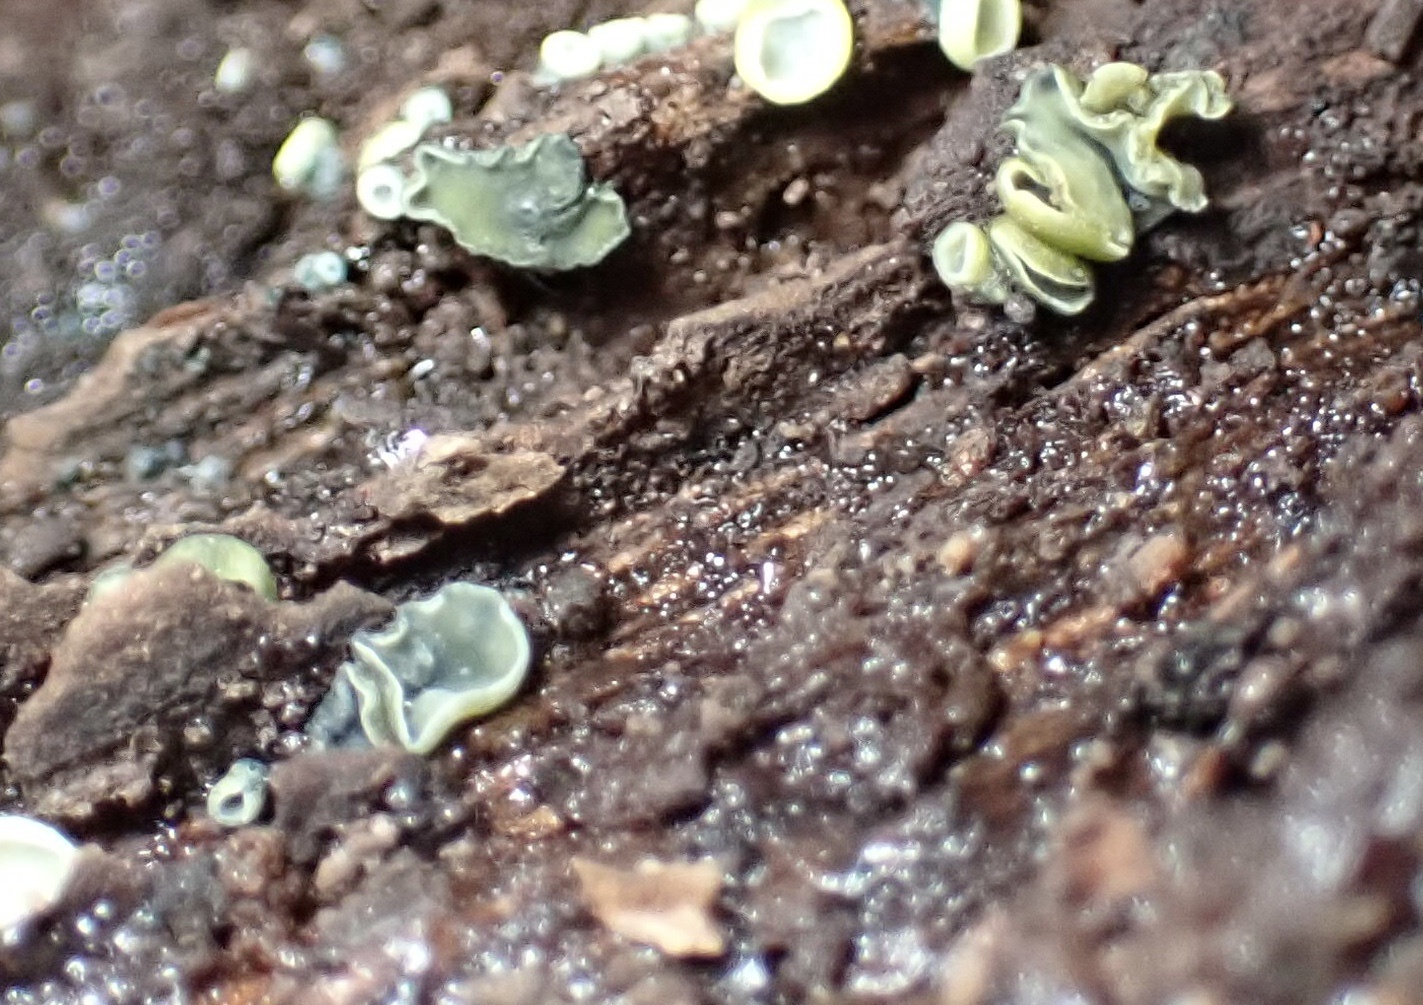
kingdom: Fungi
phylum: Ascomycota
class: Leotiomycetes
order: Helotiales
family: Chlorospleniaceae
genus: Chlorosplenium
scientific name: Chlorosplenium chlora
